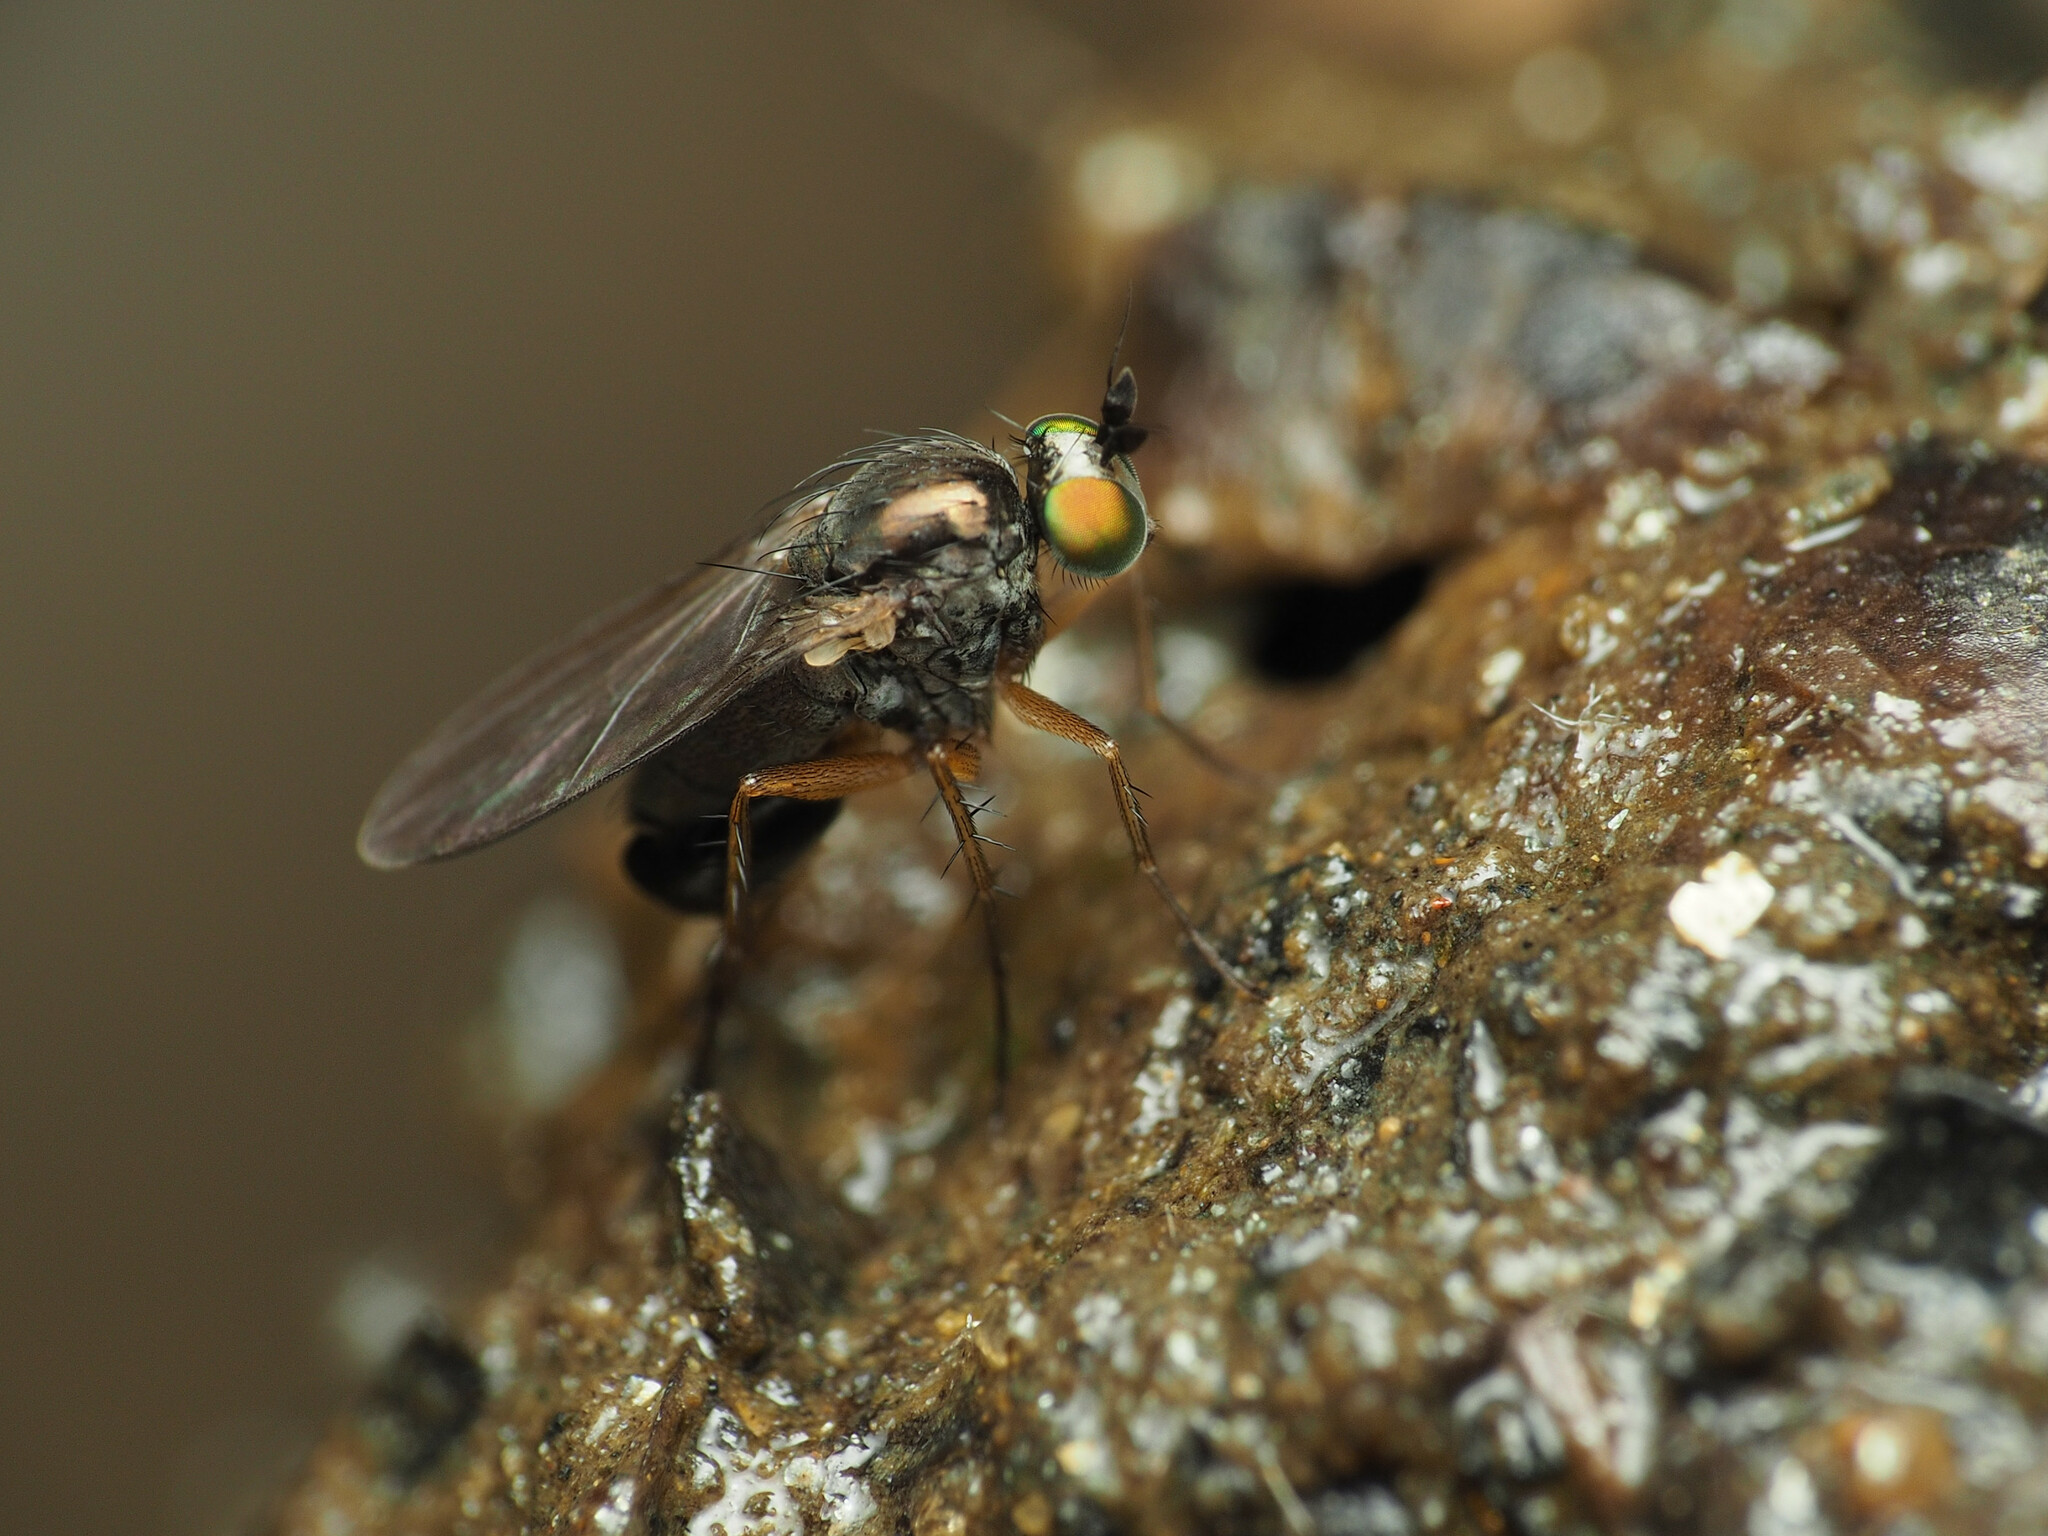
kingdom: Animalia
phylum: Arthropoda
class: Insecta
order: Diptera
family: Dolichopodidae
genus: Gymnopternus
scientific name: Gymnopternus meniscus
